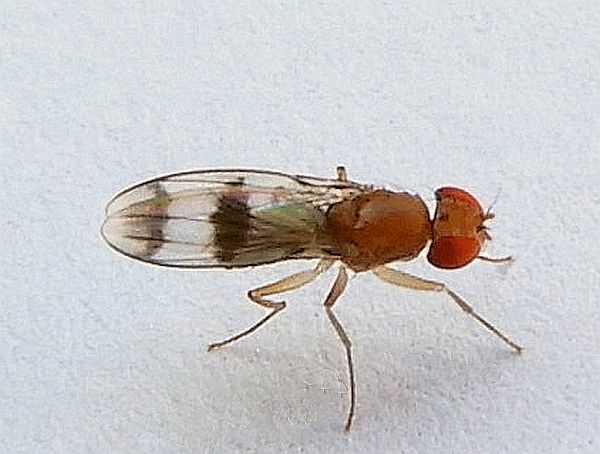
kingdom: Animalia
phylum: Arthropoda
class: Insecta
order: Diptera
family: Drosophilidae
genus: Chymomyza
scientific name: Chymomyza amoena
